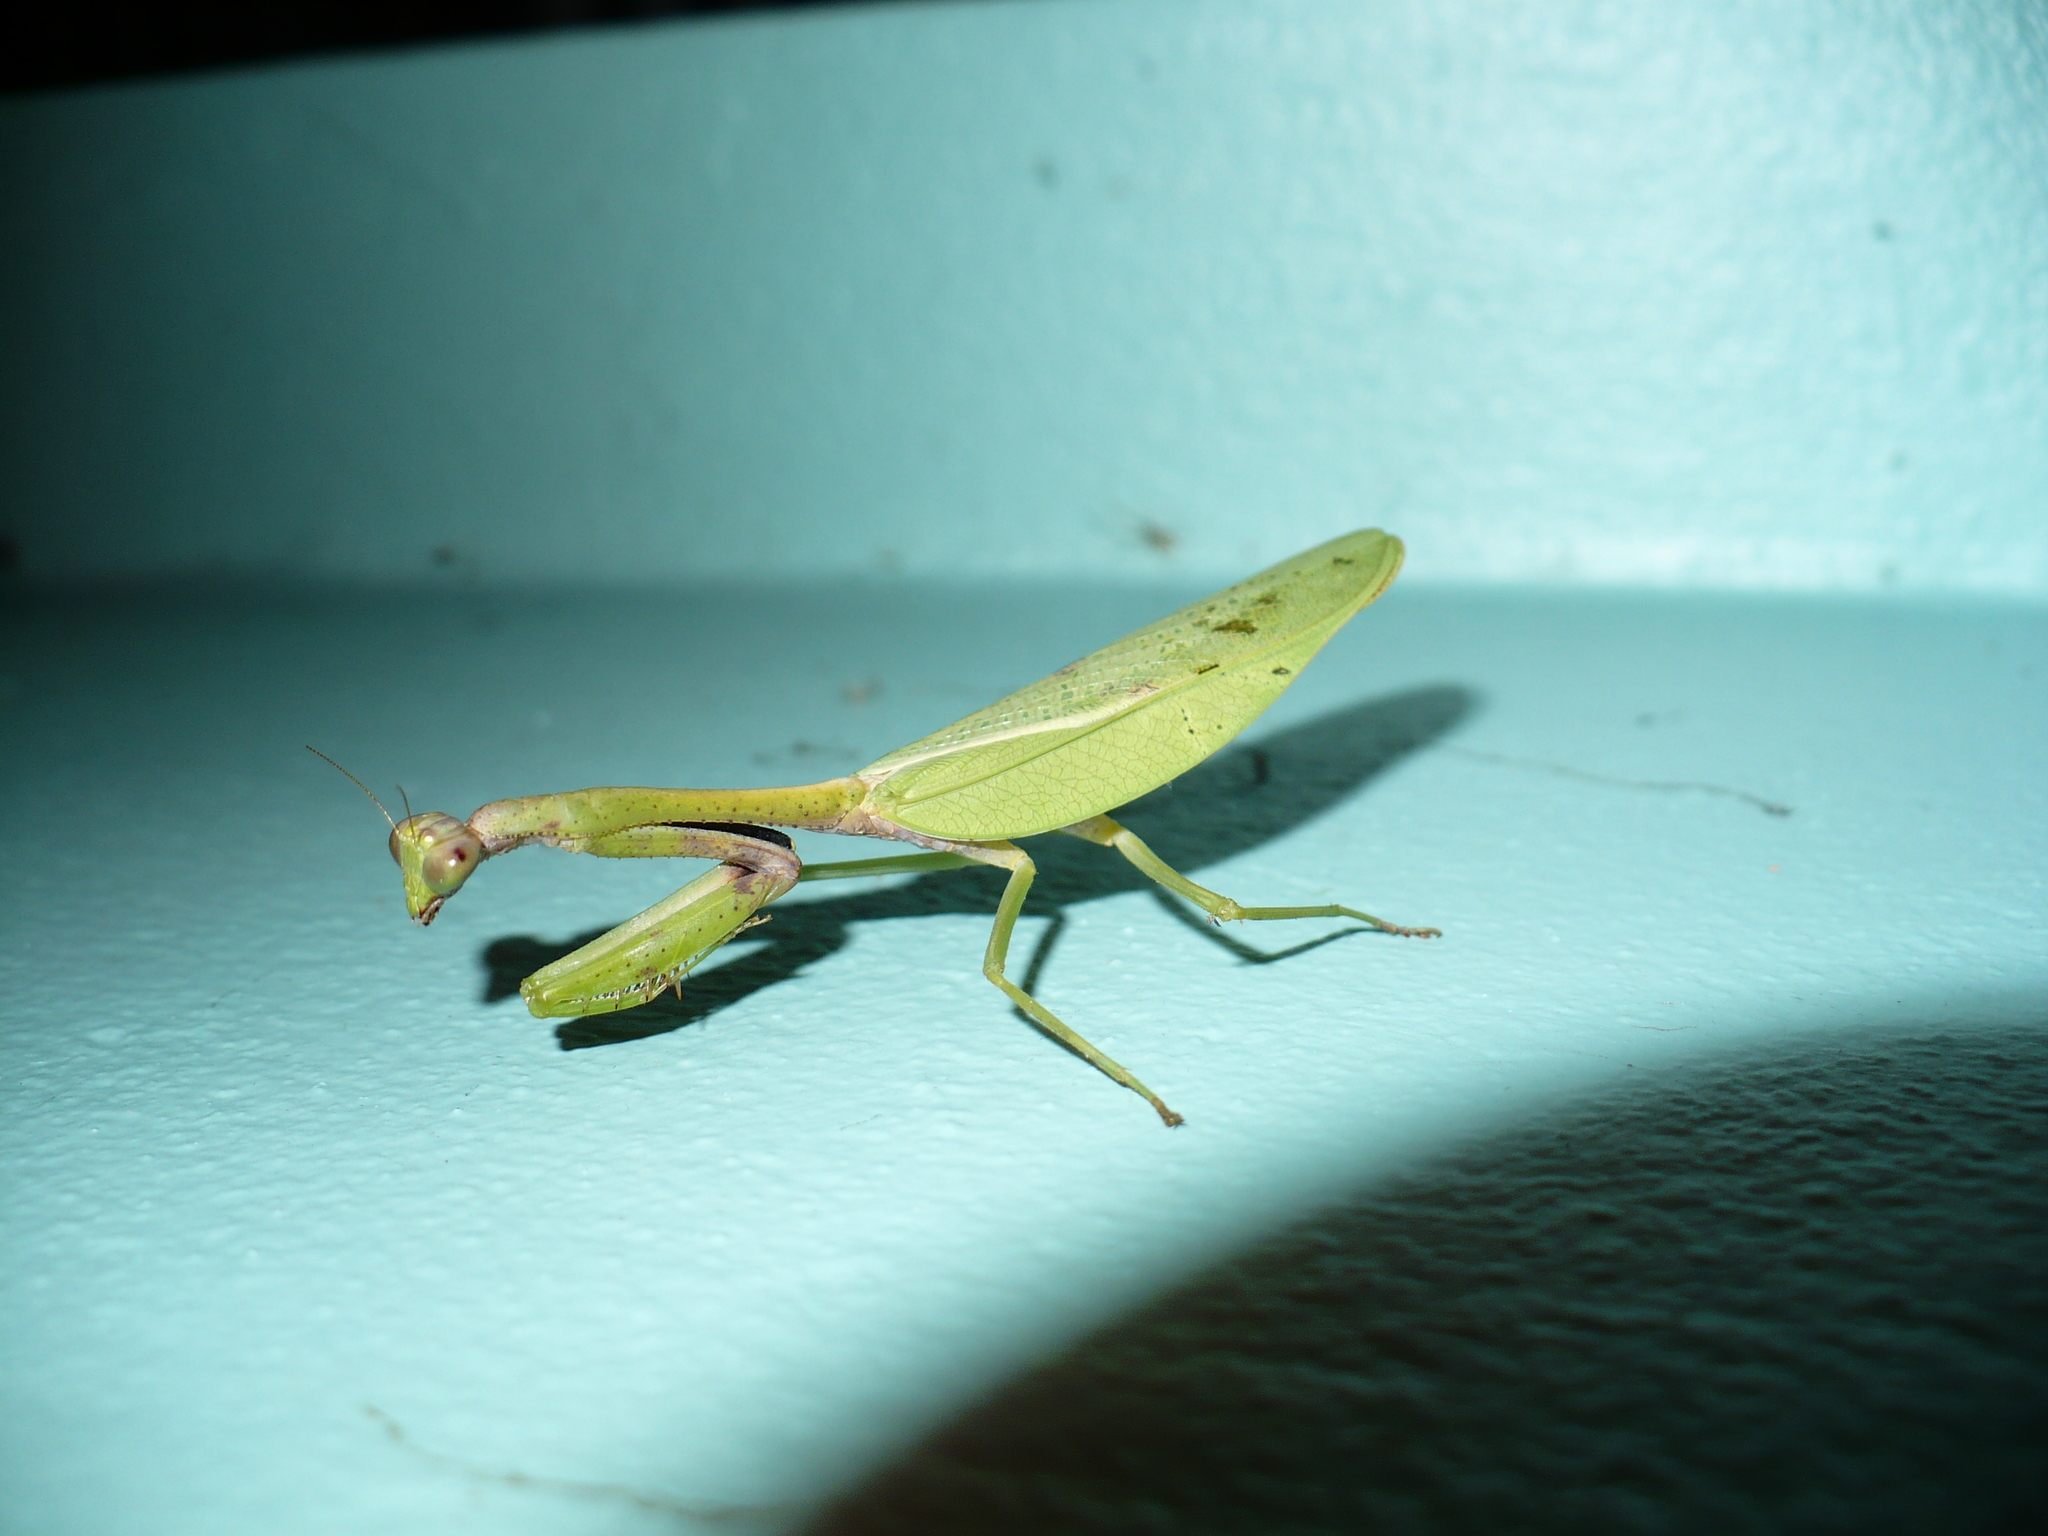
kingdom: Animalia
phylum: Arthropoda
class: Insecta
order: Mantodea
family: Mantidae
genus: Parastagmatoptera
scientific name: Parastagmatoptera unipunctata
